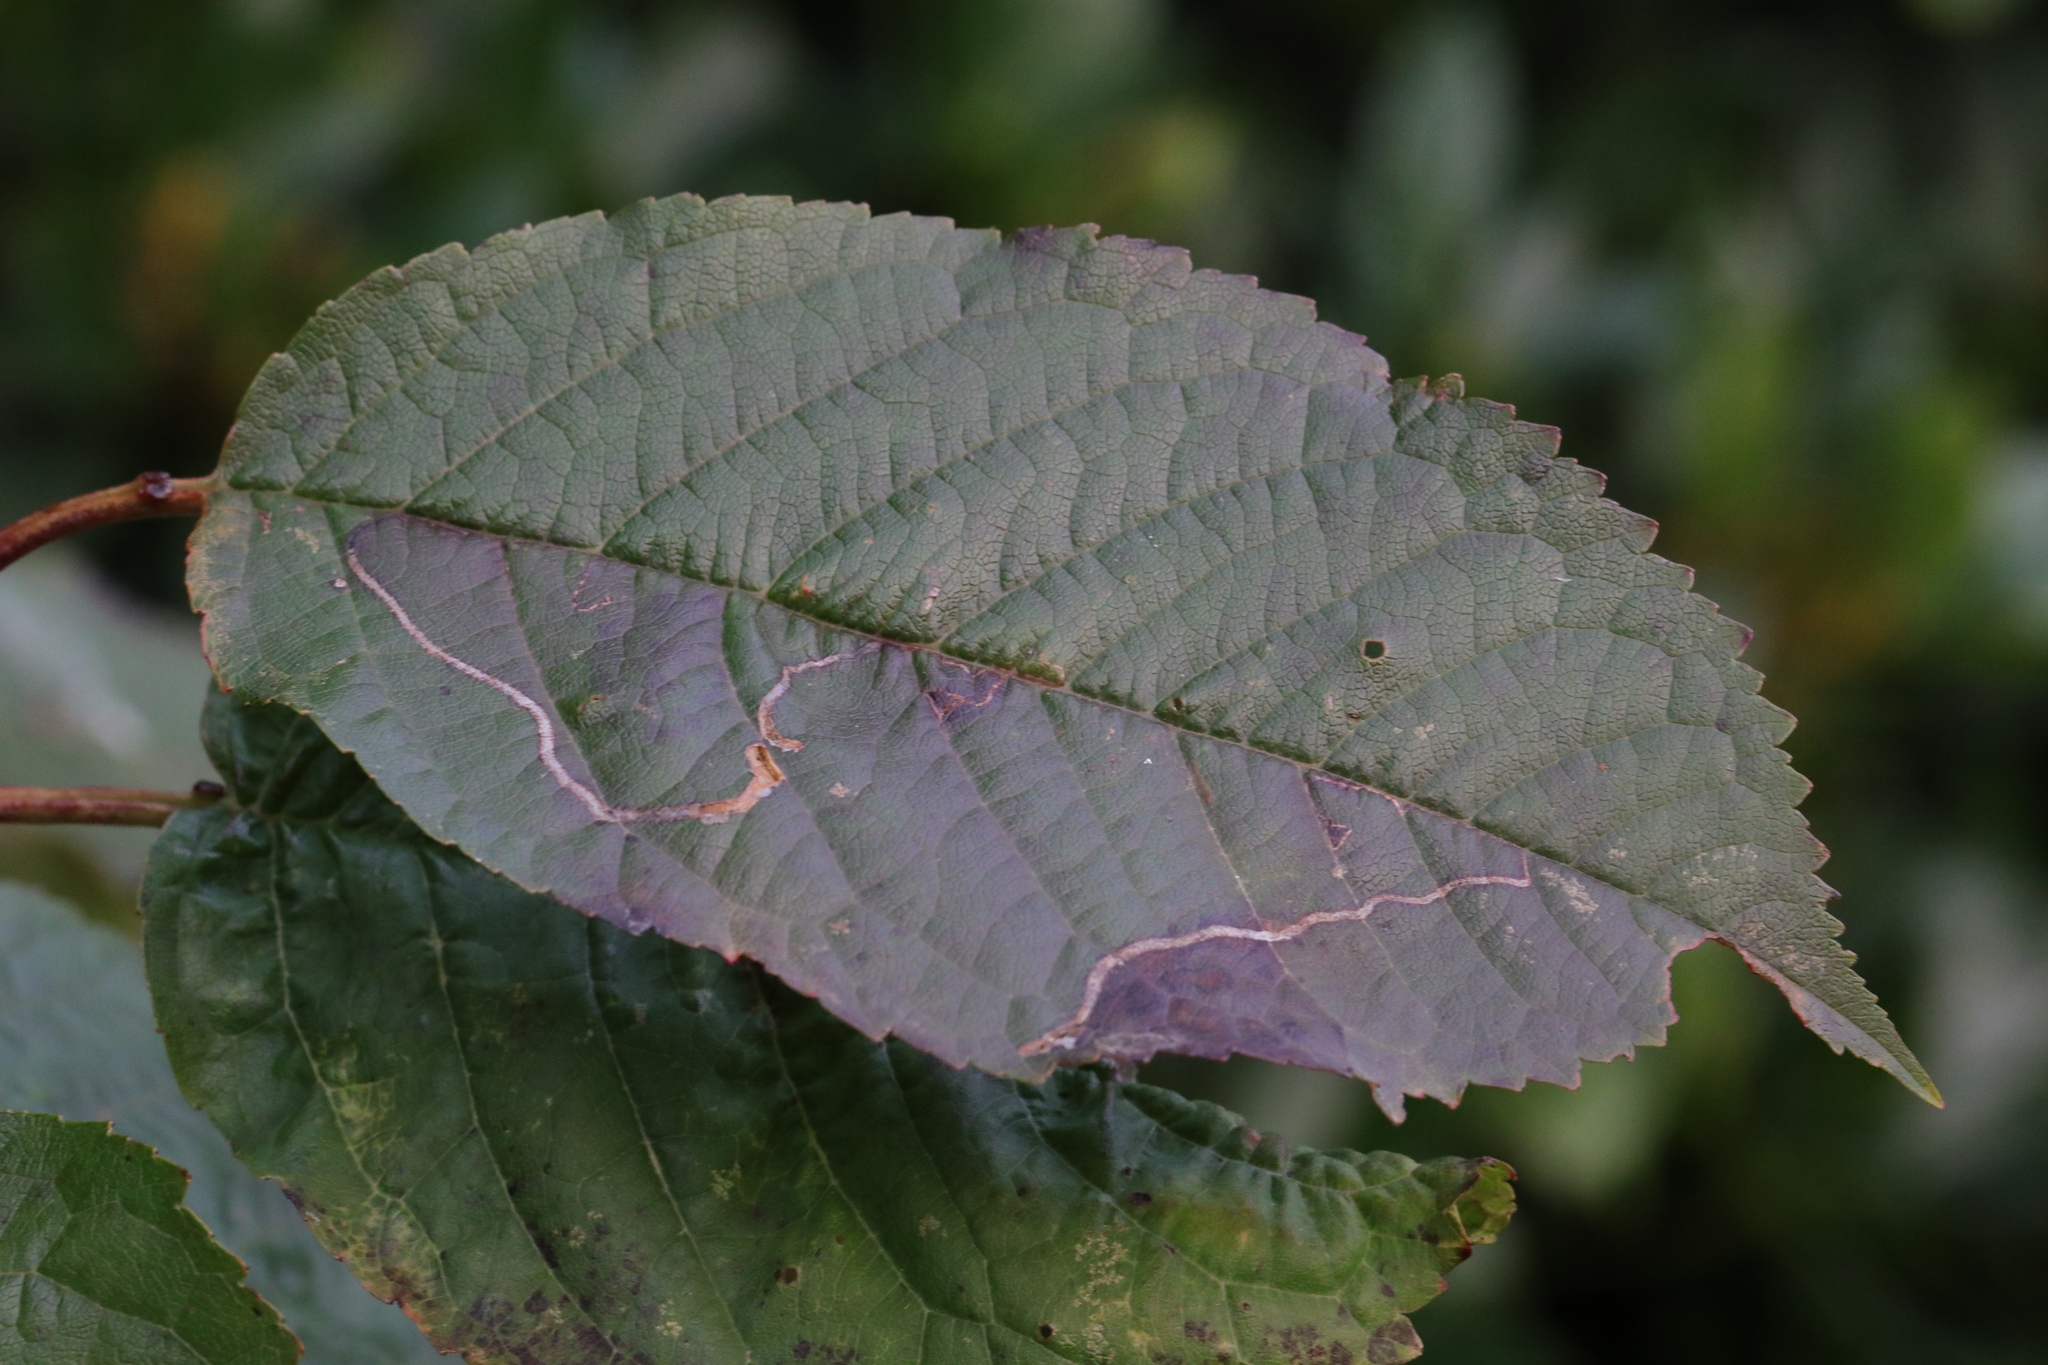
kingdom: Plantae
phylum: Tracheophyta
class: Magnoliopsida
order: Rosales
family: Rosaceae
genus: Prunus
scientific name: Prunus avium
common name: Sweet cherry
